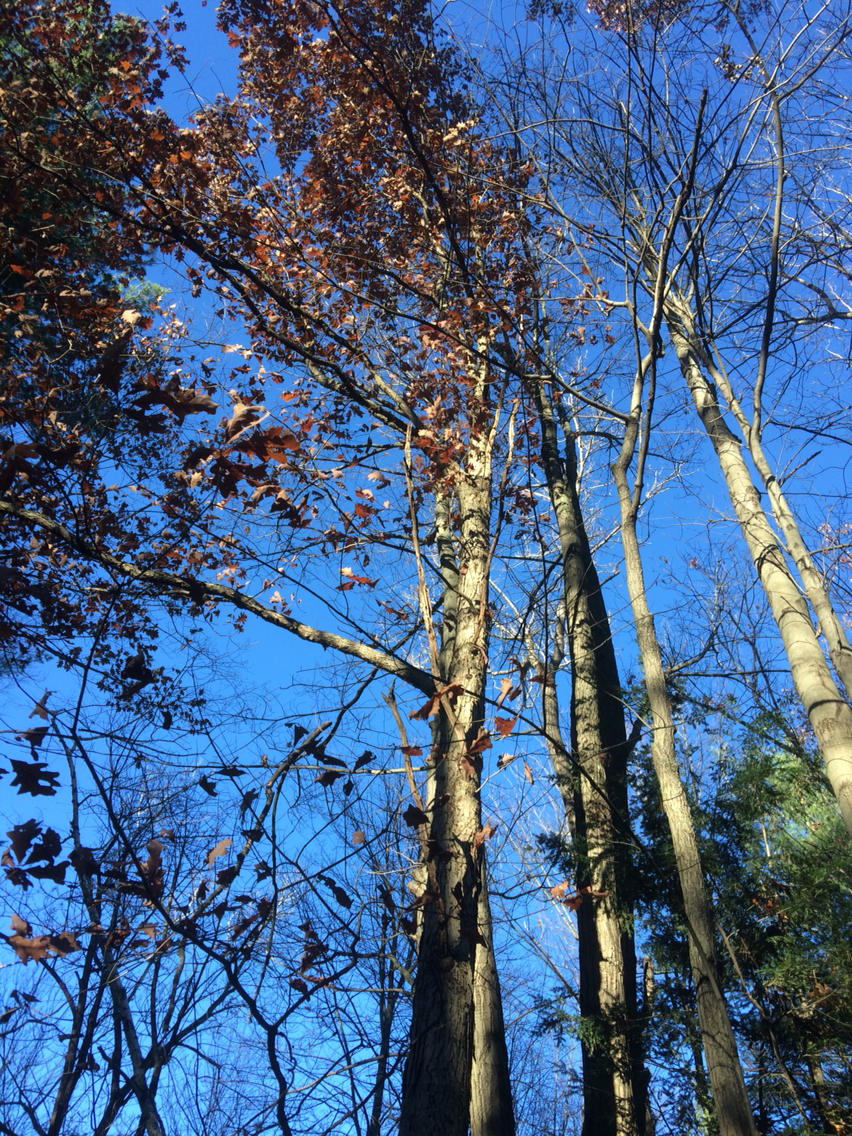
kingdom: Plantae
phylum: Tracheophyta
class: Magnoliopsida
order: Fagales
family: Fagaceae
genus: Quercus
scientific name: Quercus alba
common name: White oak
